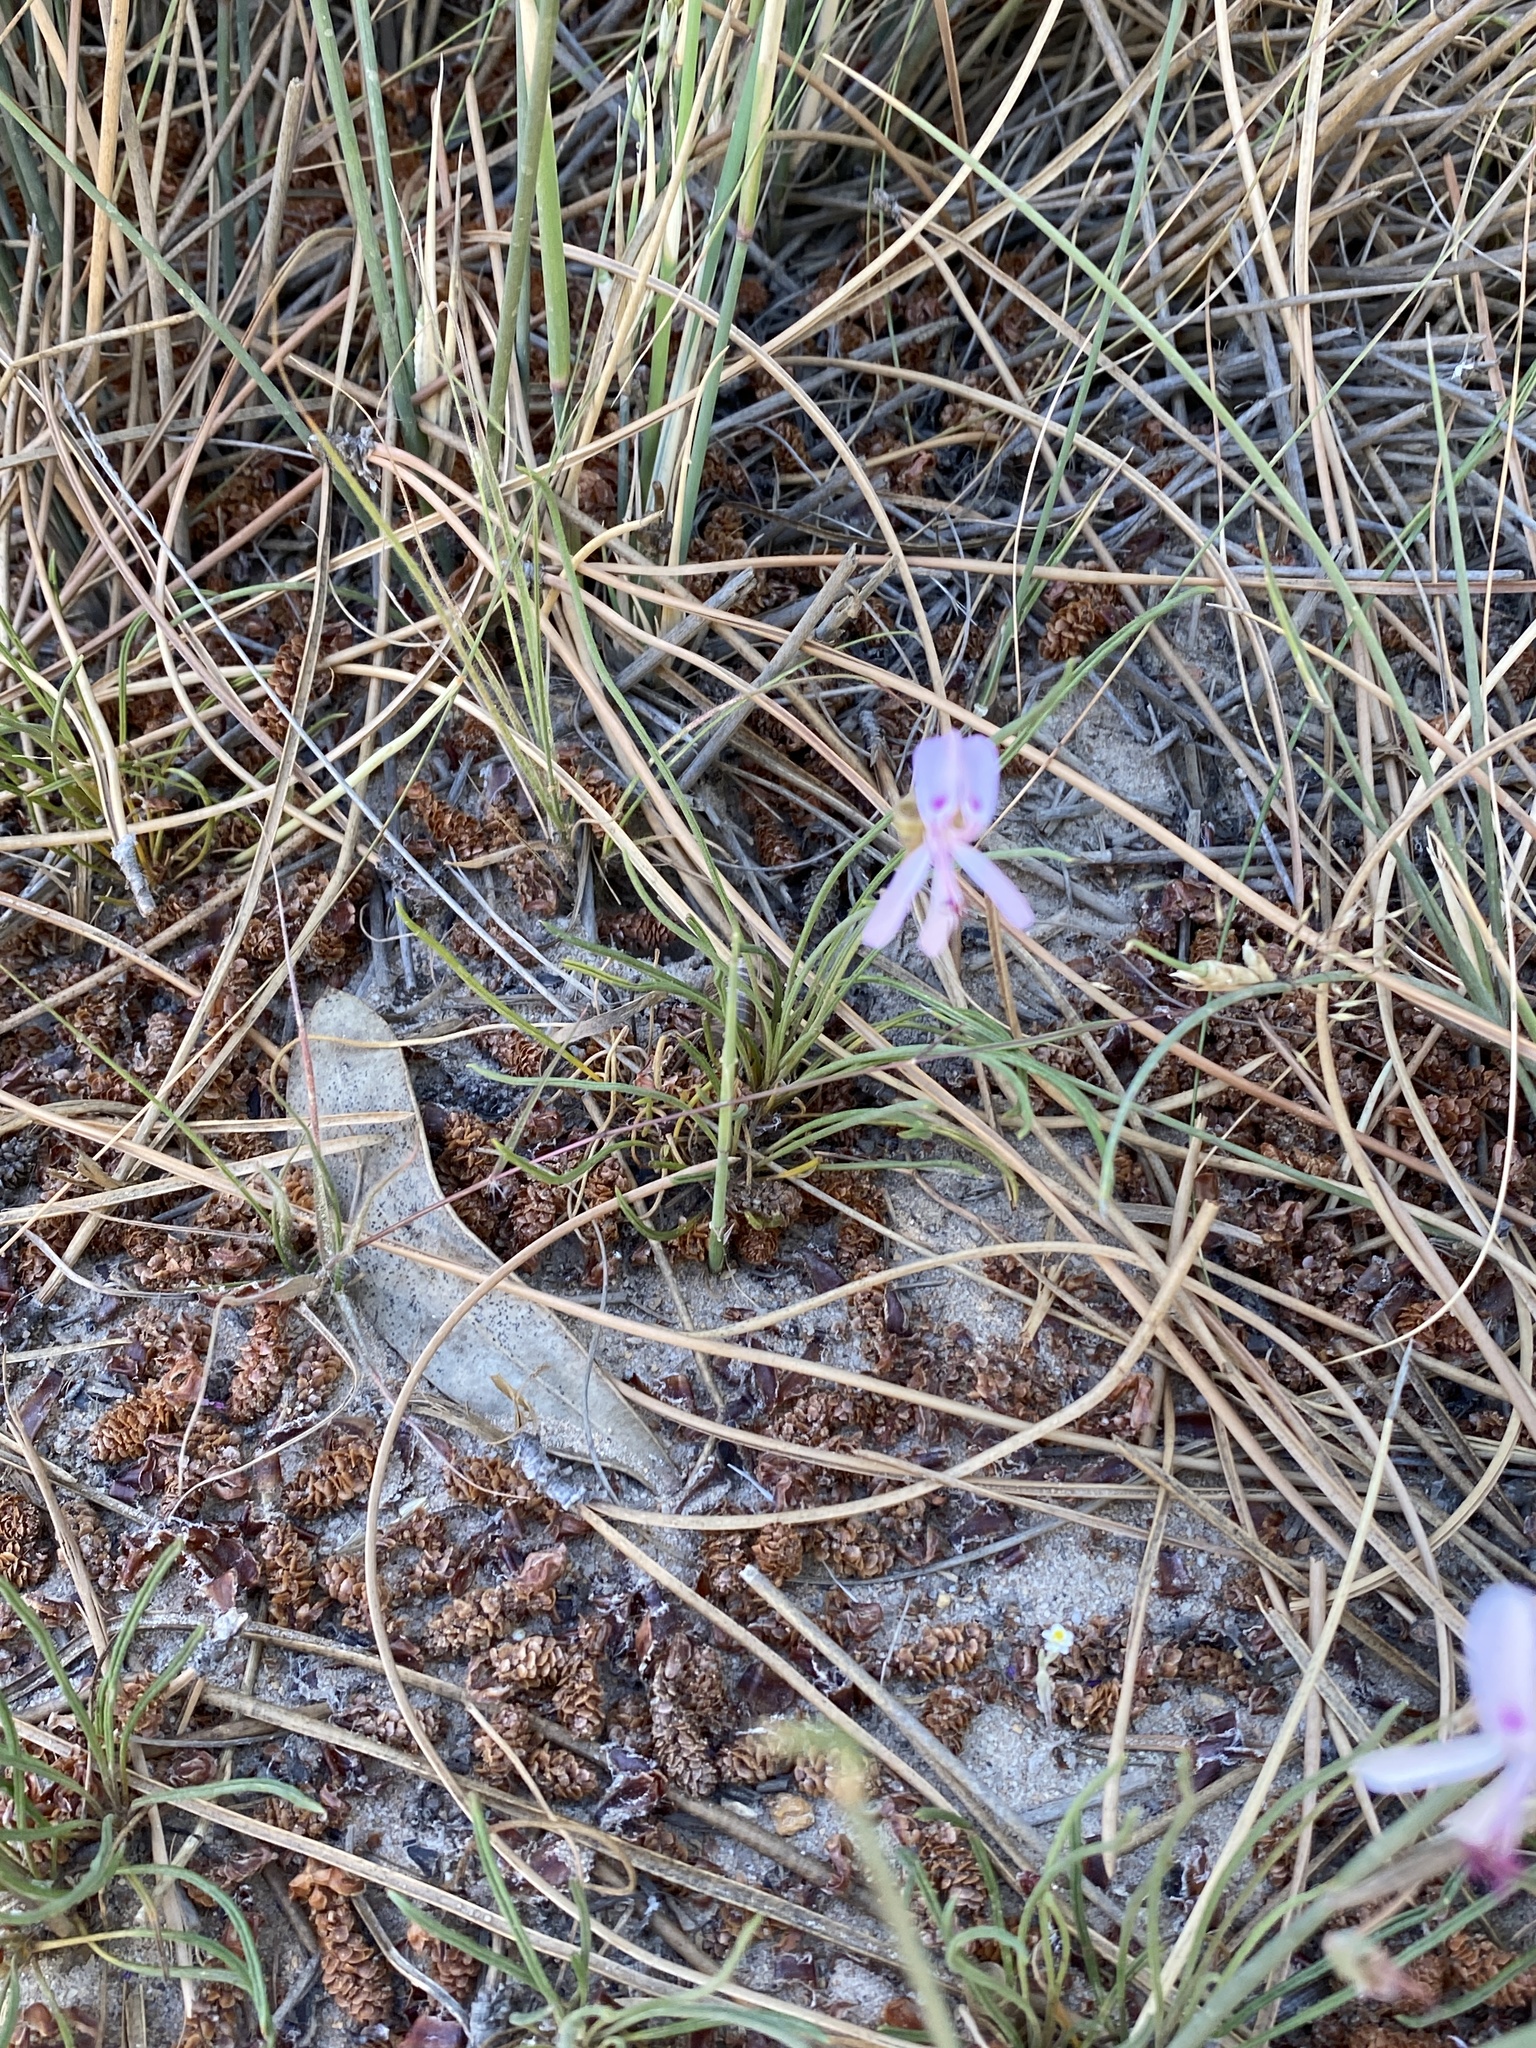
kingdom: Plantae
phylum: Tracheophyta
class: Magnoliopsida
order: Geraniales
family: Geraniaceae
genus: Pelargonium
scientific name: Pelargonium coronopifolium
